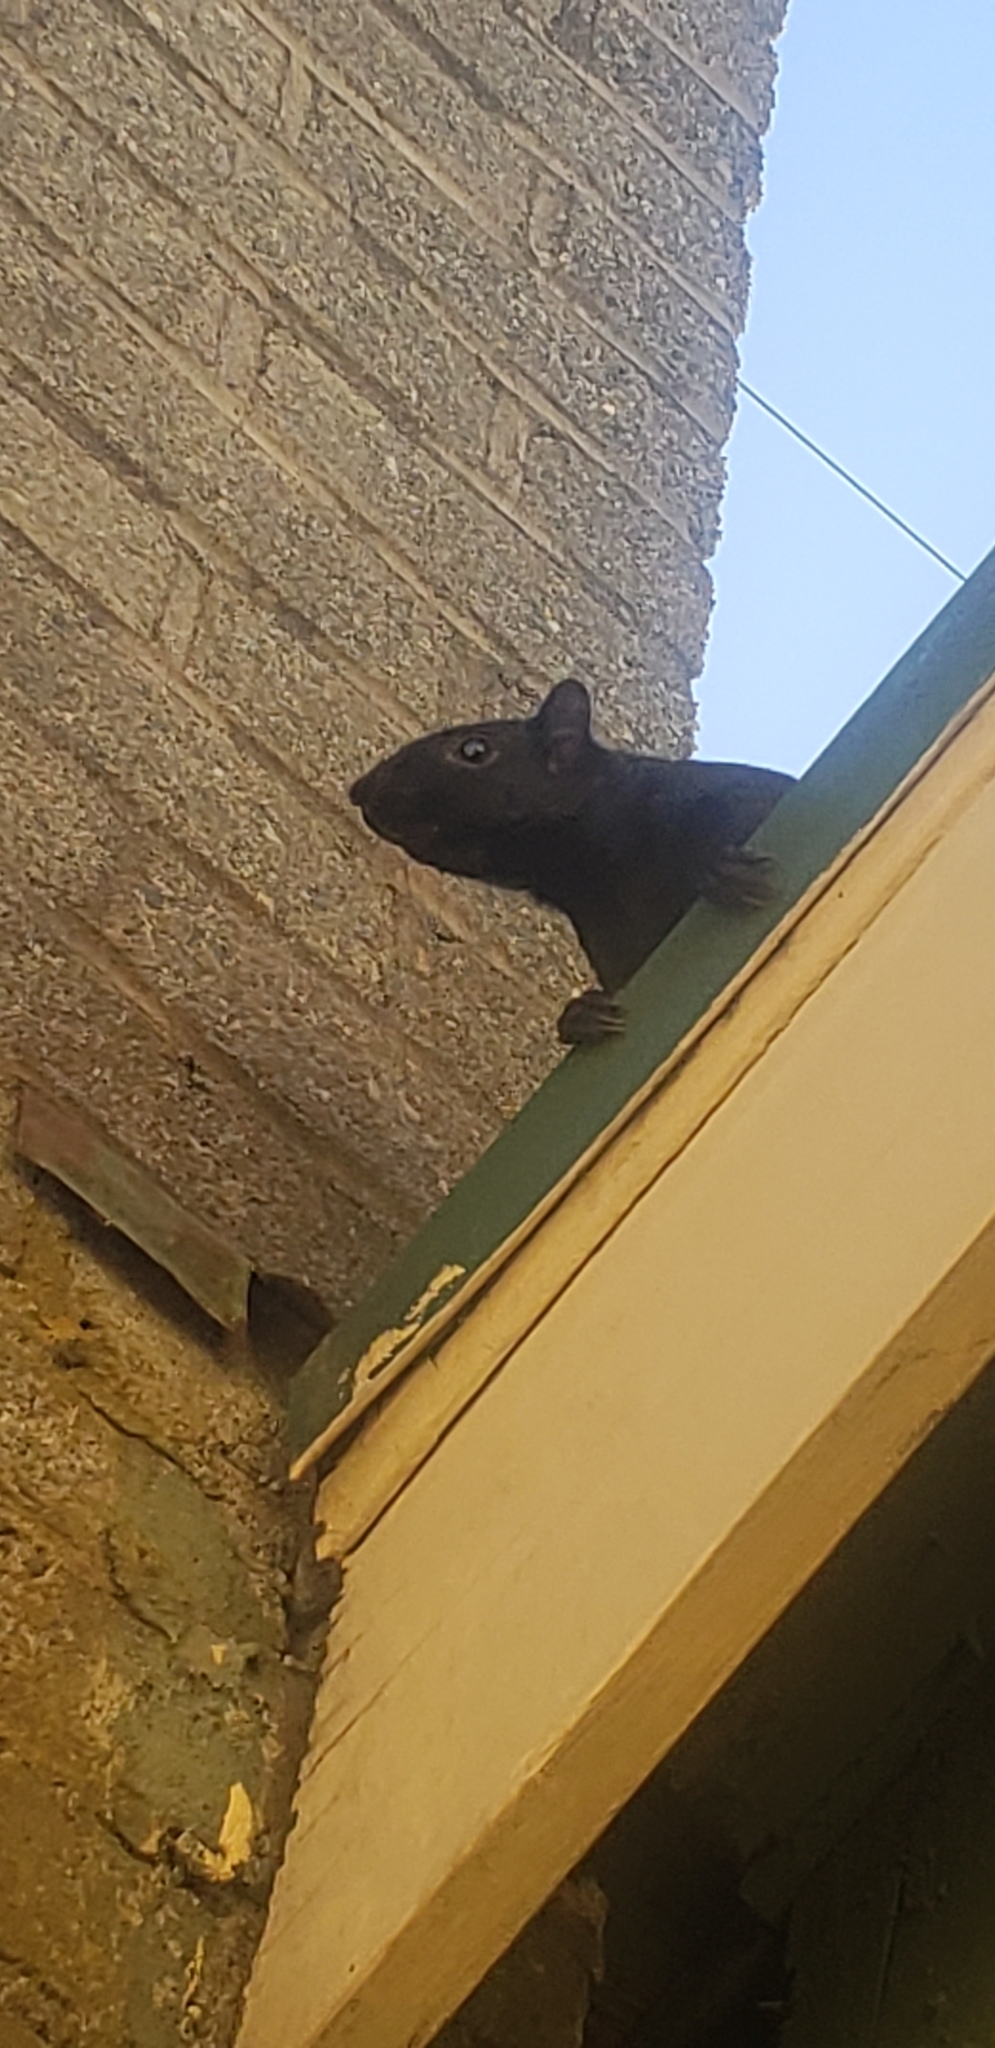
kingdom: Animalia
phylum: Chordata
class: Mammalia
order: Rodentia
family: Sciuridae
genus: Sciurus
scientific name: Sciurus carolinensis
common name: Eastern gray squirrel
